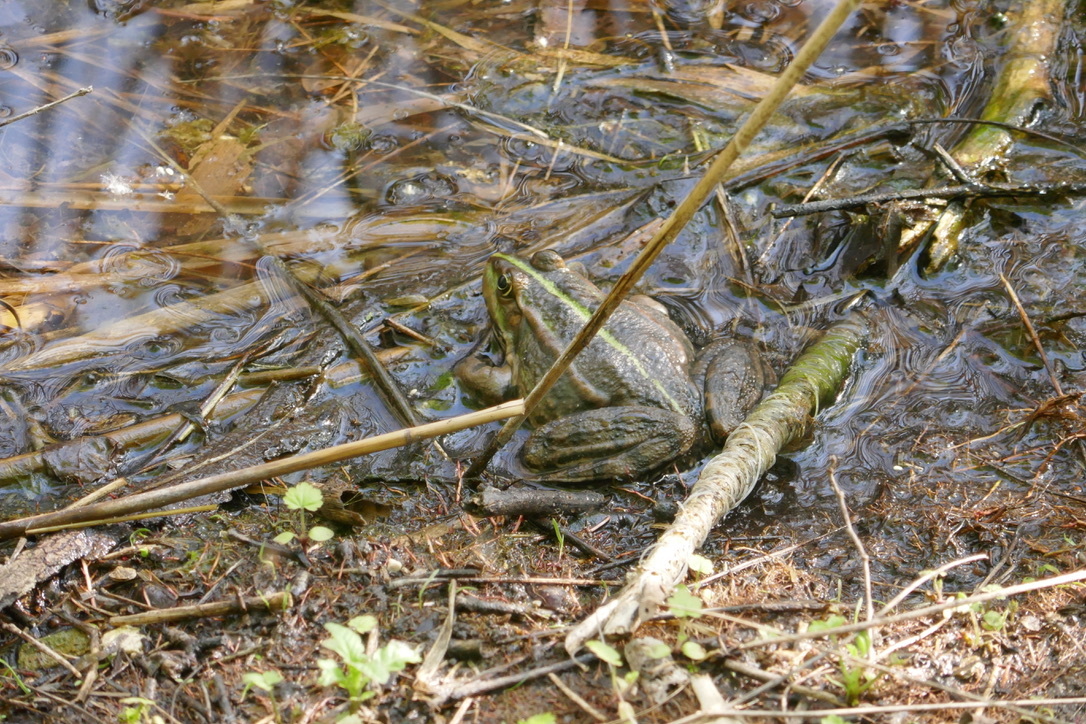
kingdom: Animalia
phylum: Chordata
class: Amphibia
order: Anura
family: Ranidae
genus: Pelophylax
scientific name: Pelophylax
